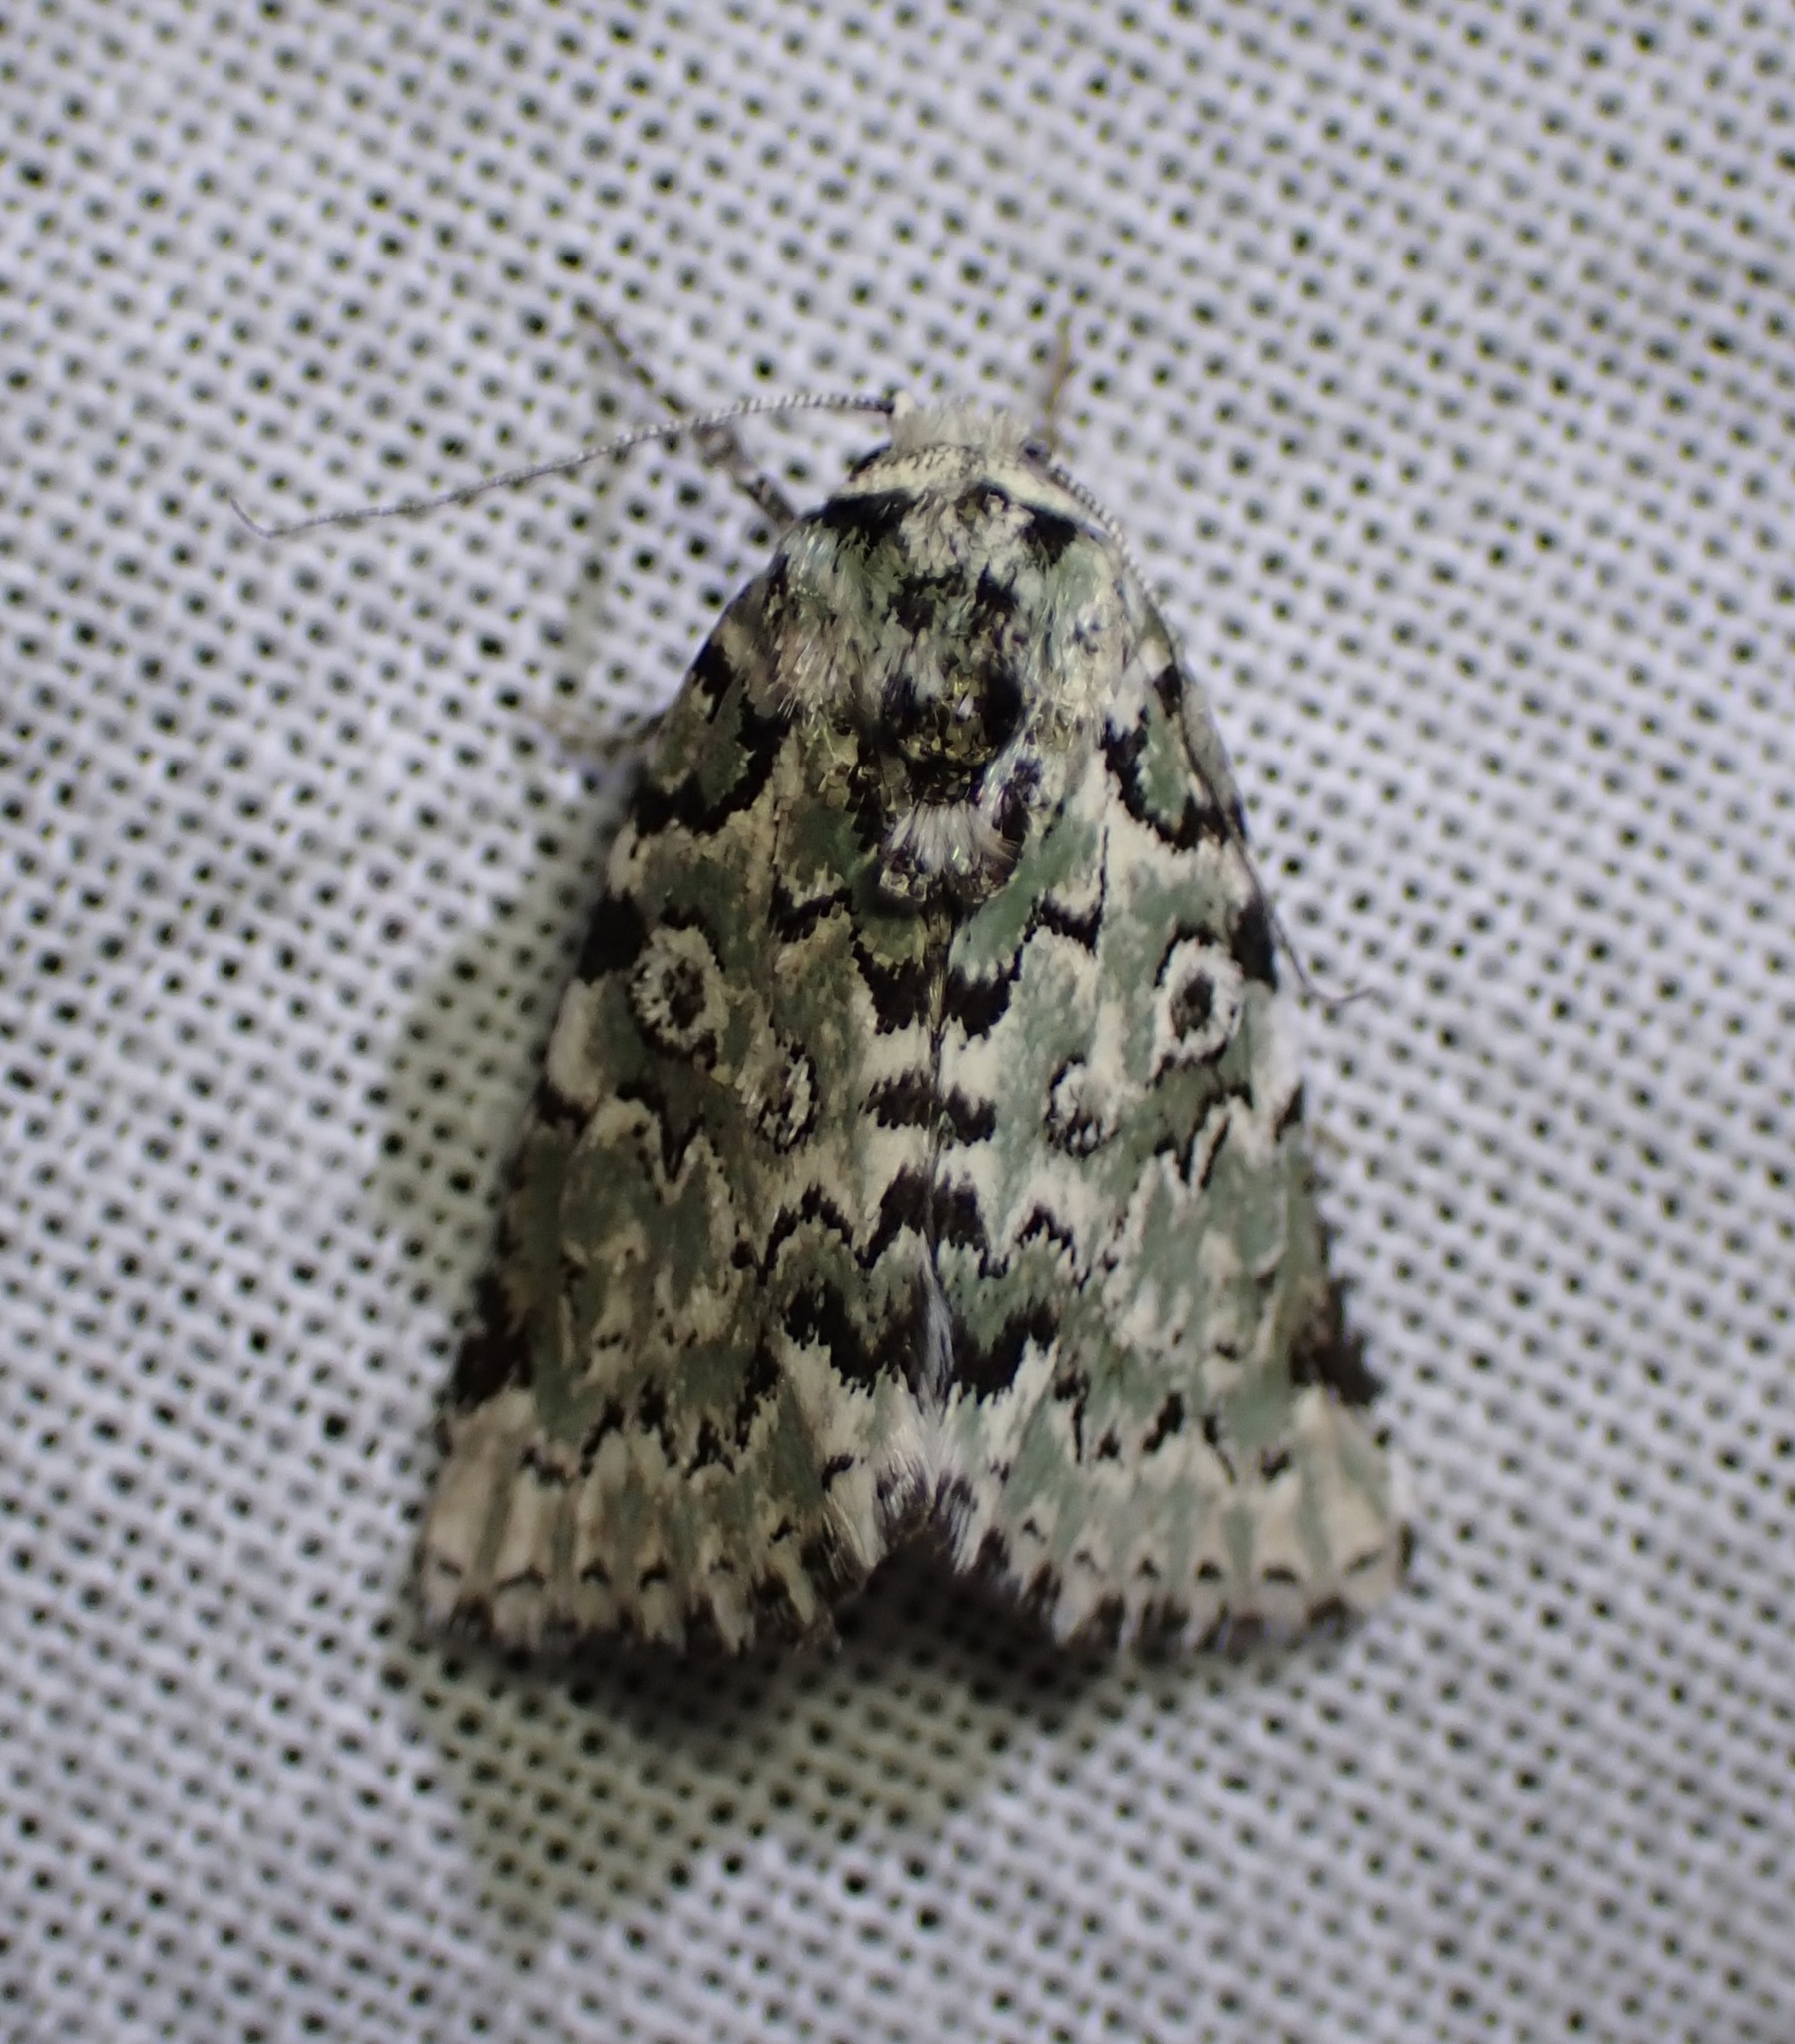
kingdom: Animalia
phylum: Arthropoda
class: Insecta
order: Lepidoptera
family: Noctuidae
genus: Bryolymnia
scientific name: Bryolymnia viridata
